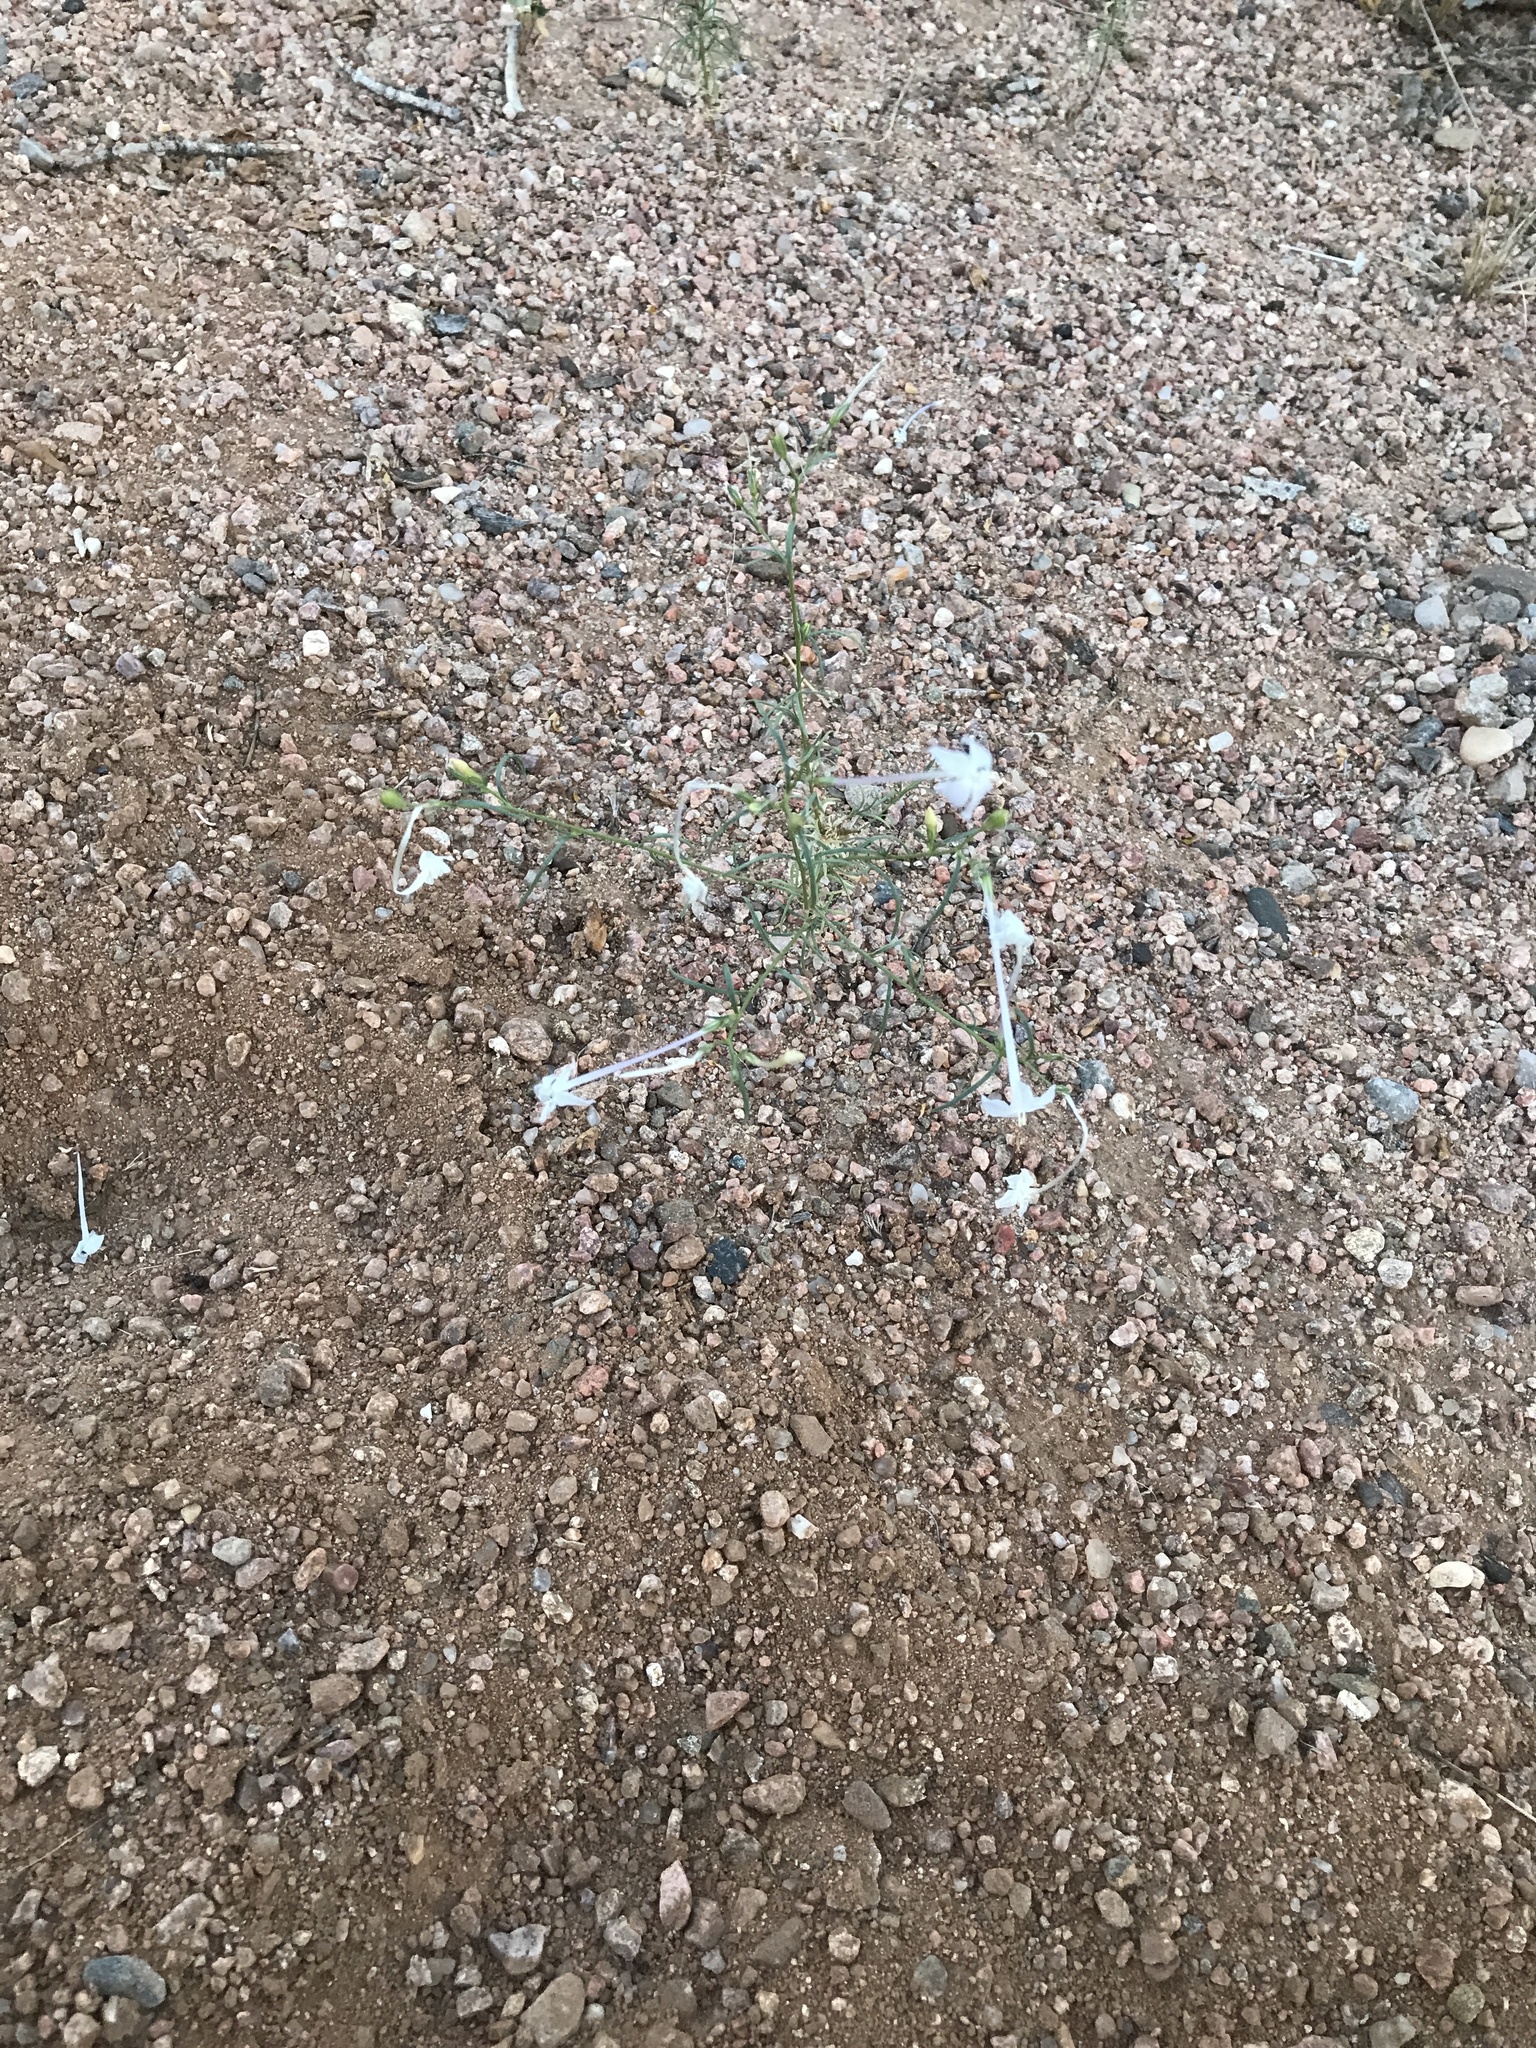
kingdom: Plantae
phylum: Tracheophyta
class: Magnoliopsida
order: Ericales
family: Polemoniaceae
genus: Ipomopsis
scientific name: Ipomopsis longiflora
